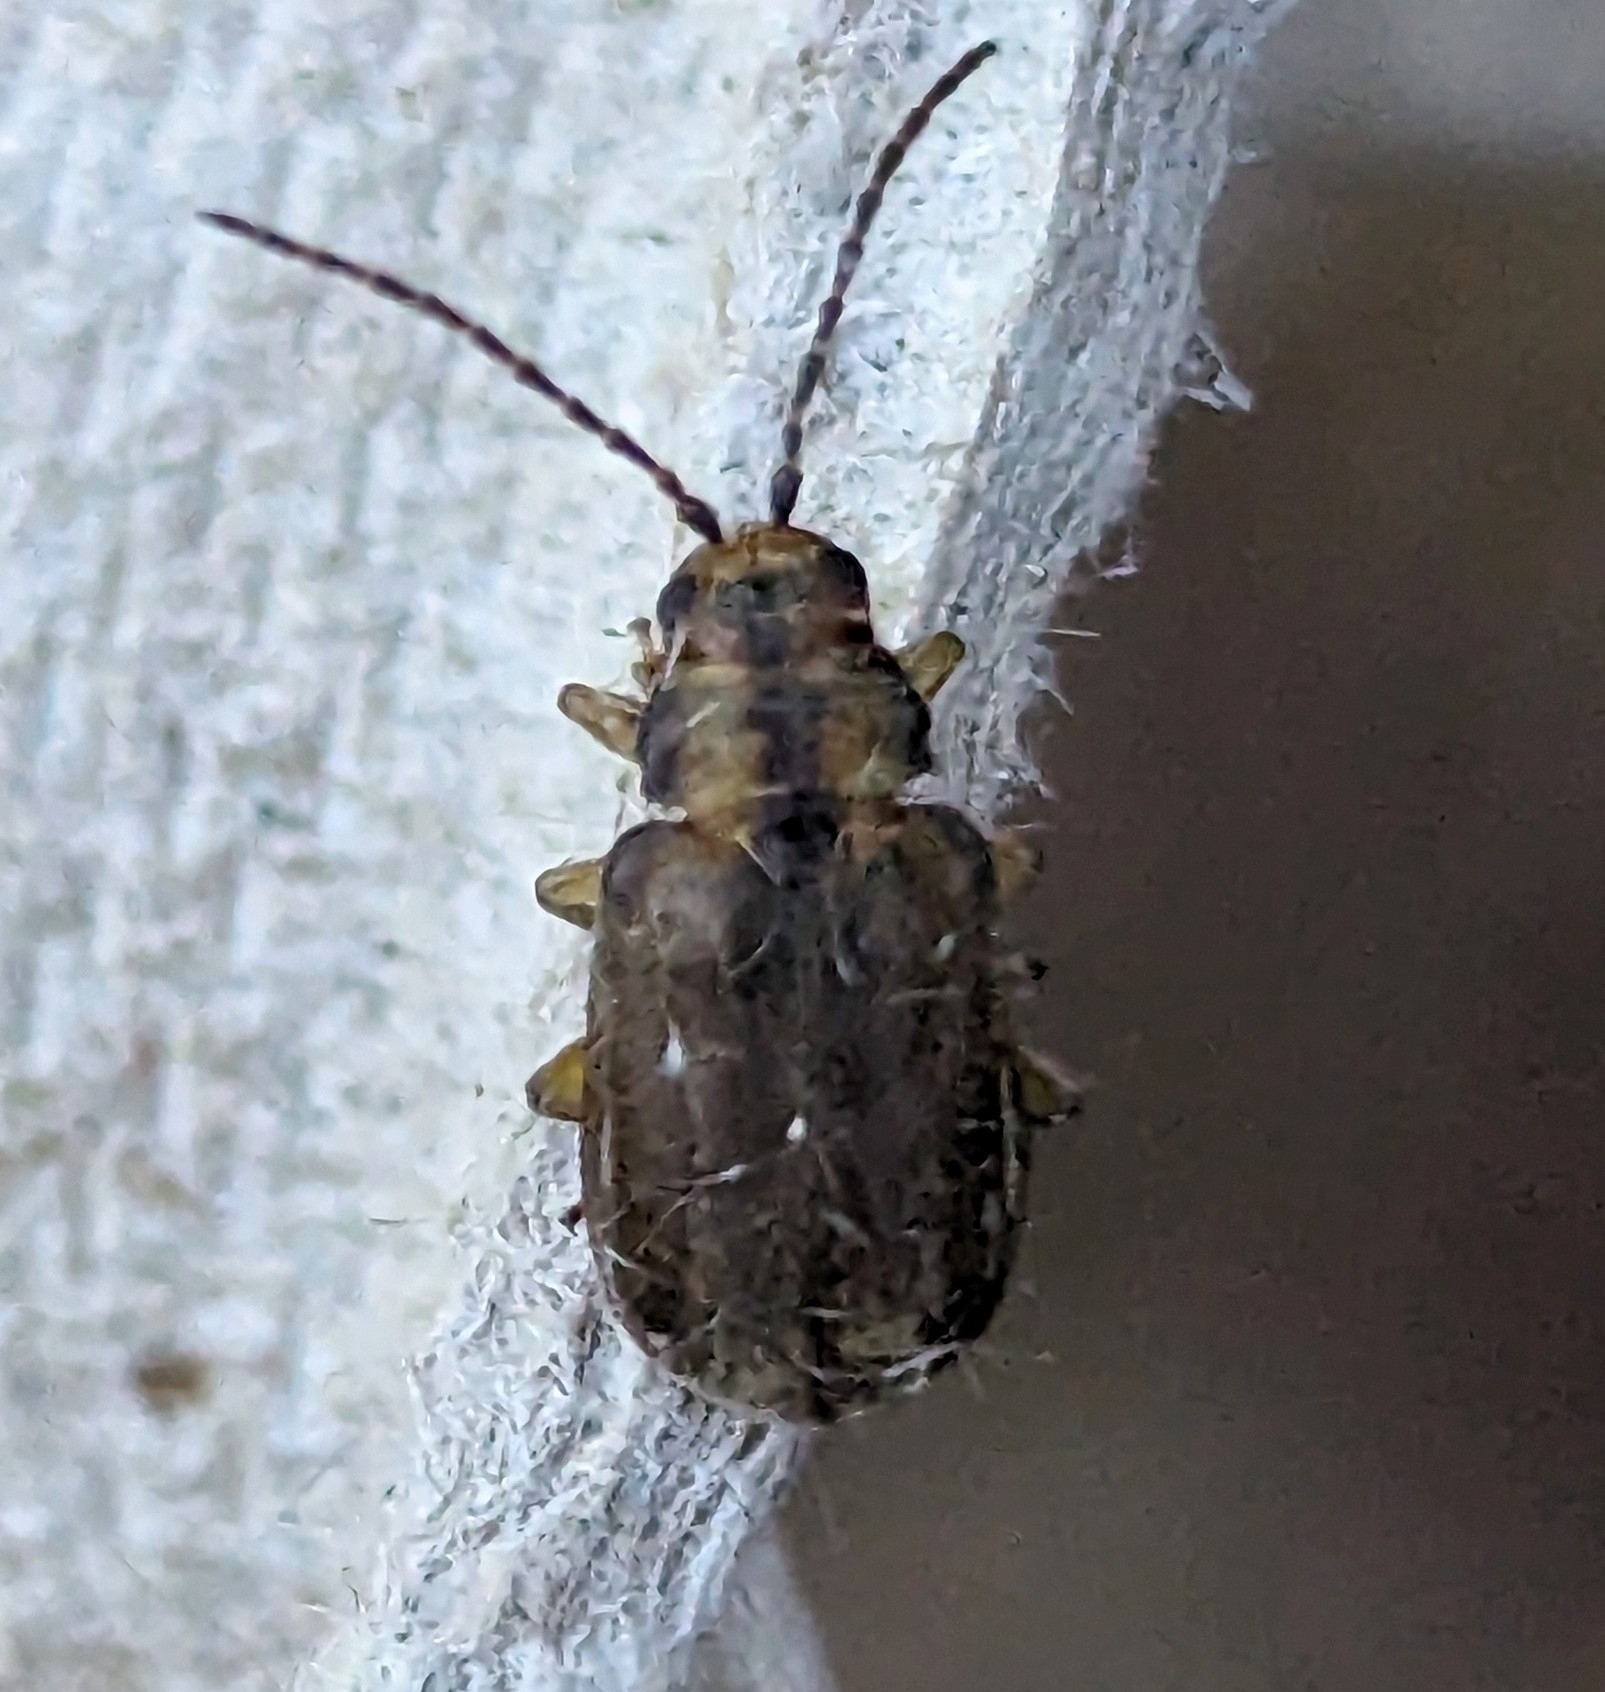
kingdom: Animalia
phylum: Arthropoda
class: Insecta
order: Coleoptera
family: Chrysomelidae
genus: Pyrrhalta
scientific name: Pyrrhalta viburni
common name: Guelder-rose leaf beetle
